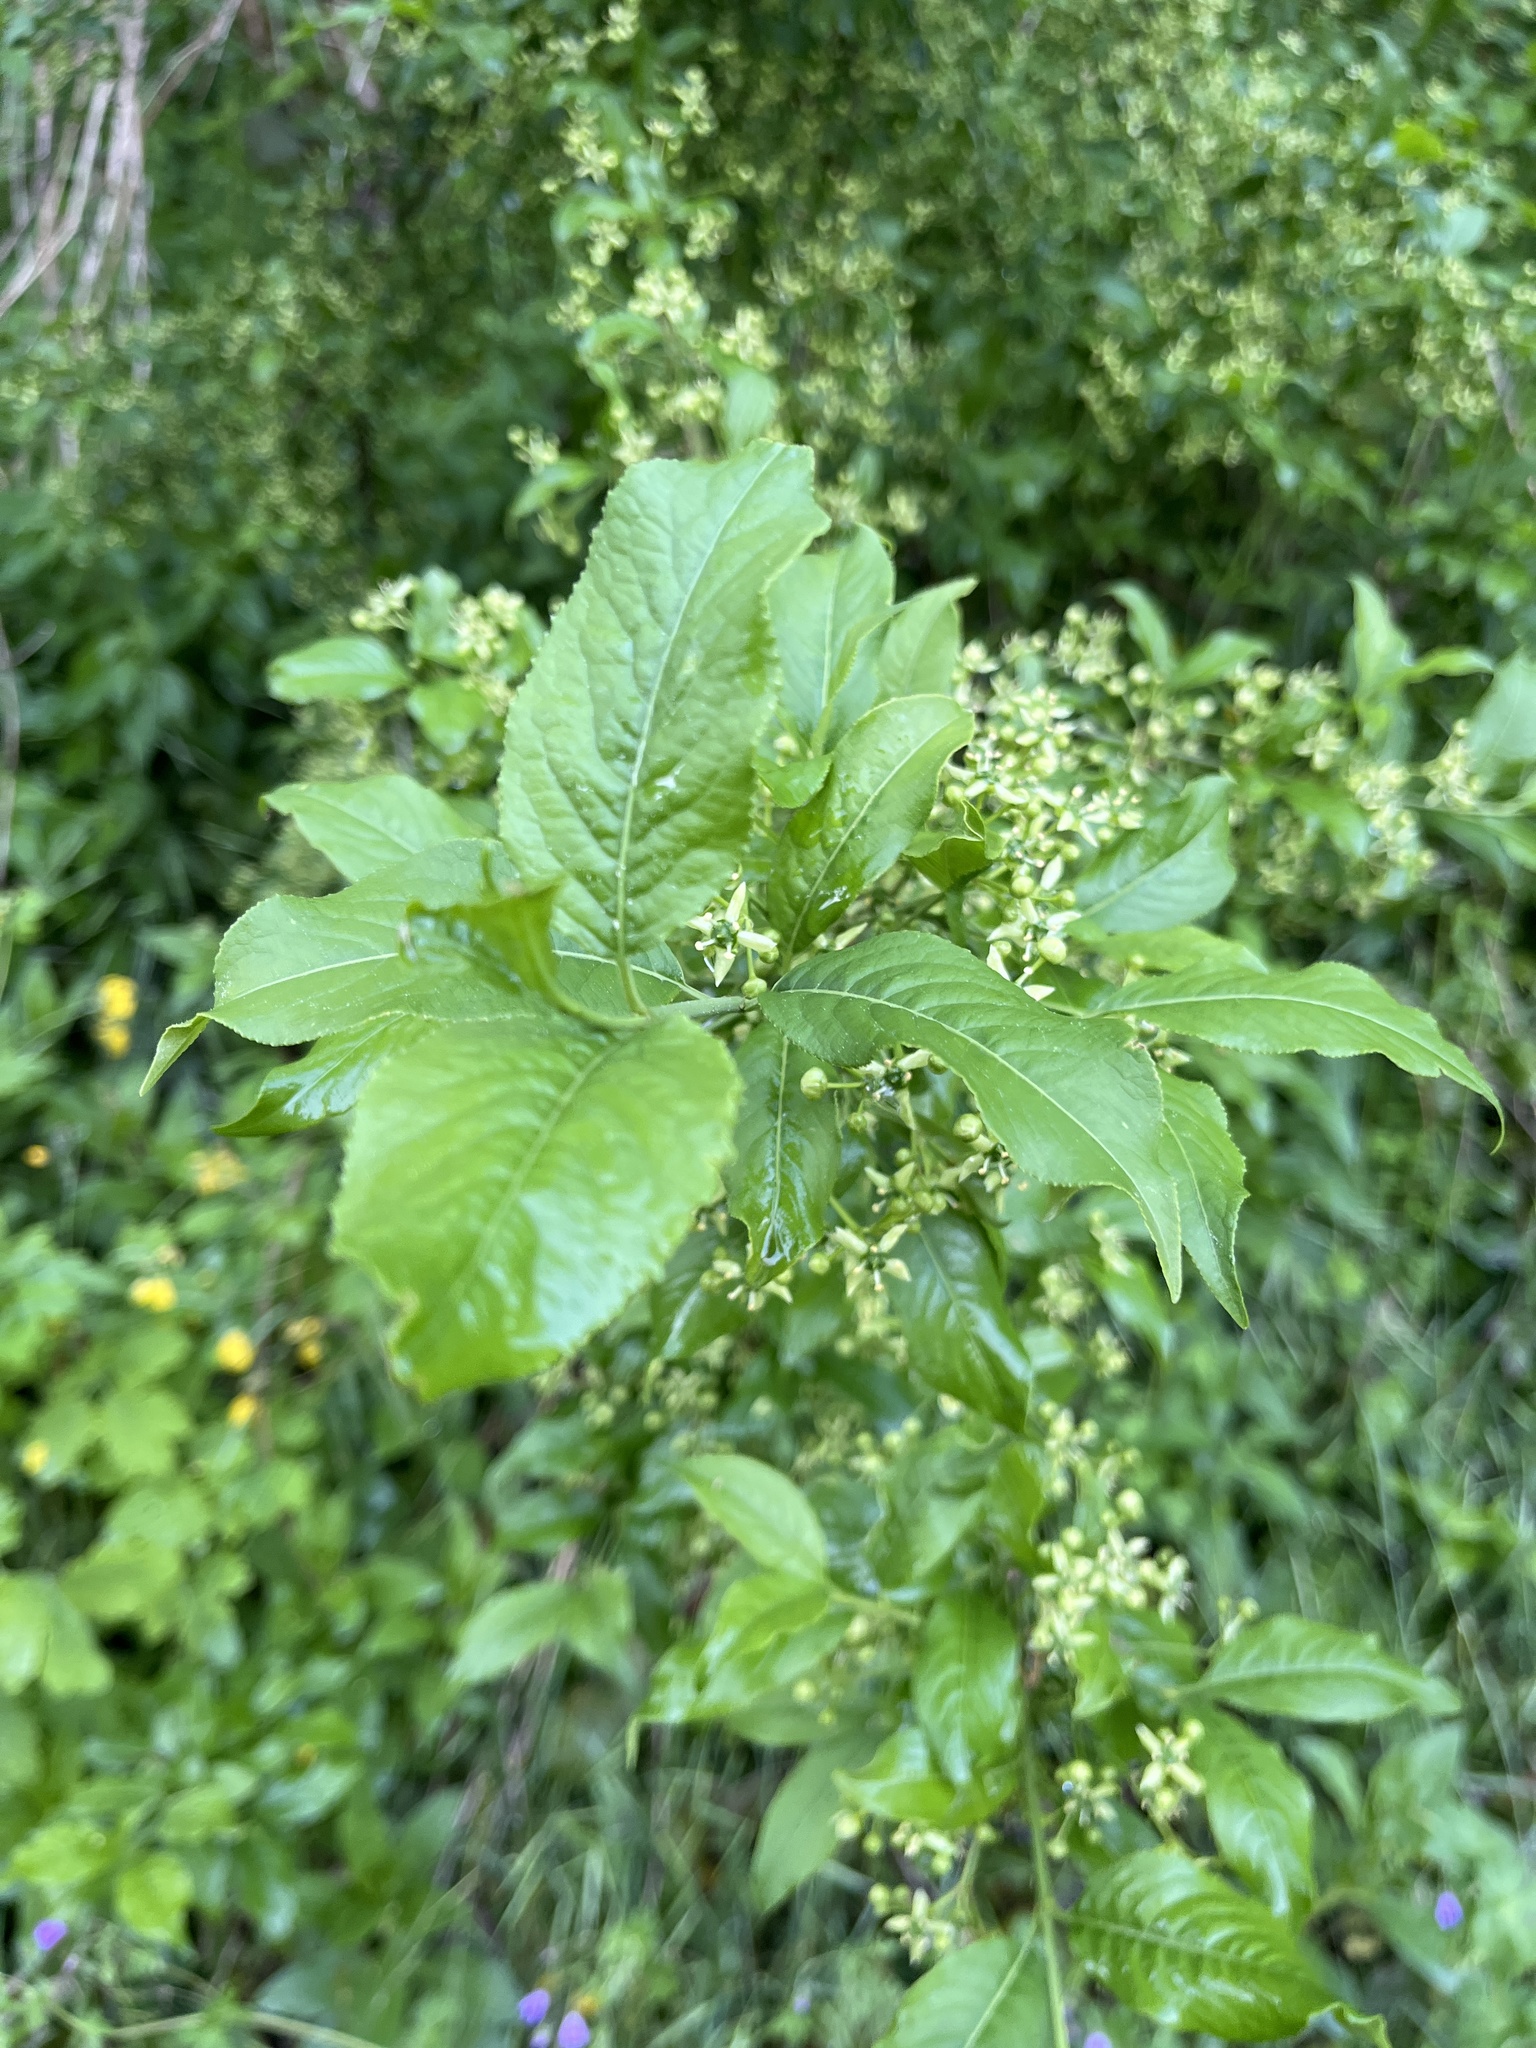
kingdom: Plantae
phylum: Tracheophyta
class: Magnoliopsida
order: Celastrales
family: Celastraceae
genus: Euonymus
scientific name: Euonymus europaeus
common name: Spindle
